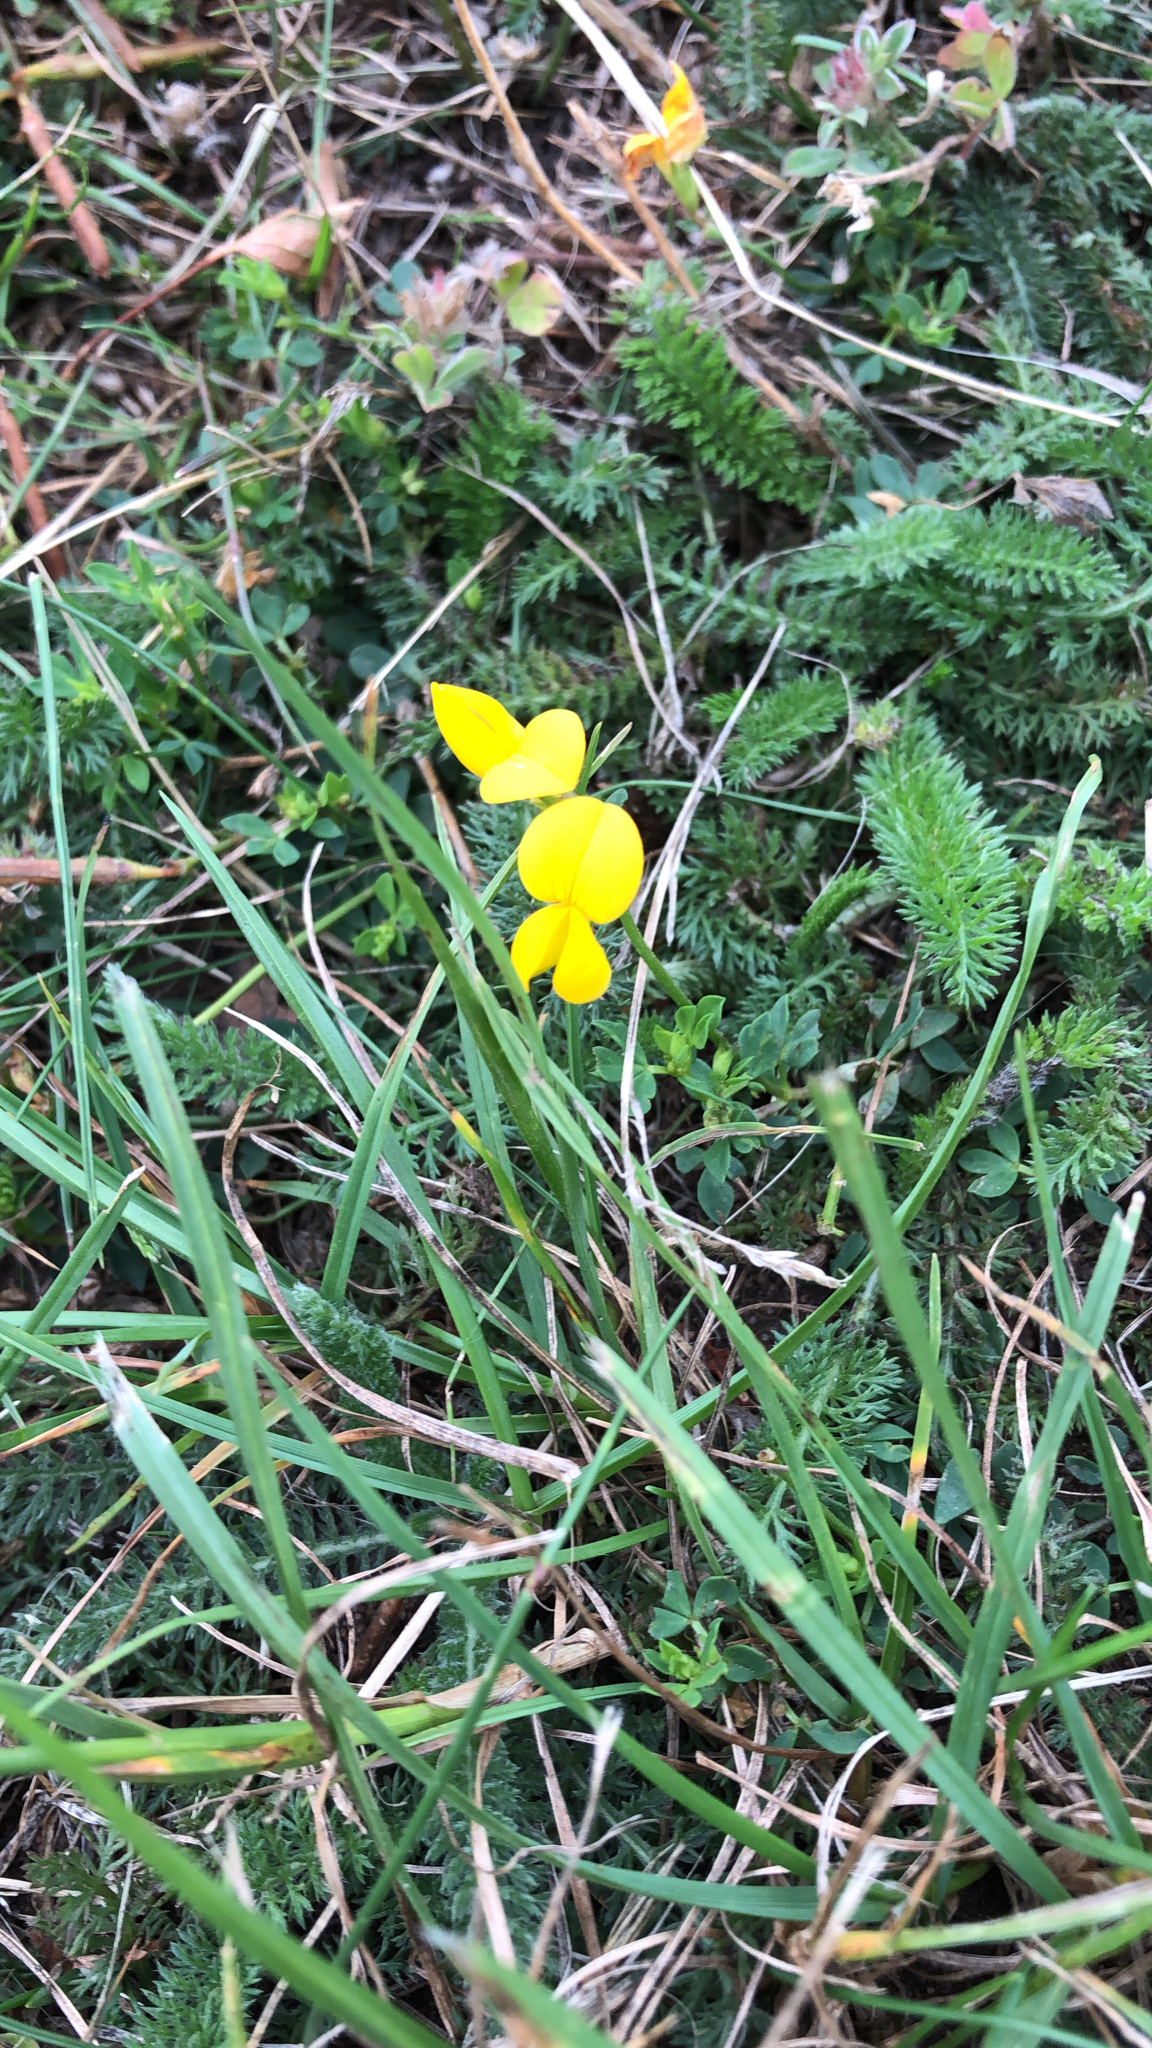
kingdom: Plantae
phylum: Tracheophyta
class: Magnoliopsida
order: Fabales
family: Fabaceae
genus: Lotus
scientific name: Lotus corniculatus
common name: Common bird's-foot-trefoil
